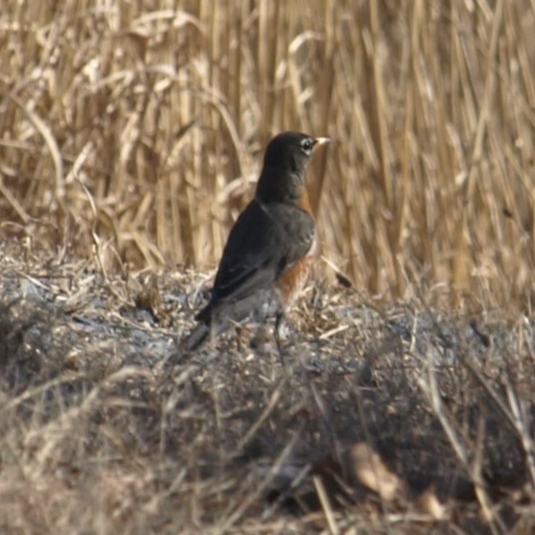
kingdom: Animalia
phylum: Chordata
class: Aves
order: Passeriformes
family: Turdidae
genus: Turdus
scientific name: Turdus migratorius
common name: American robin
